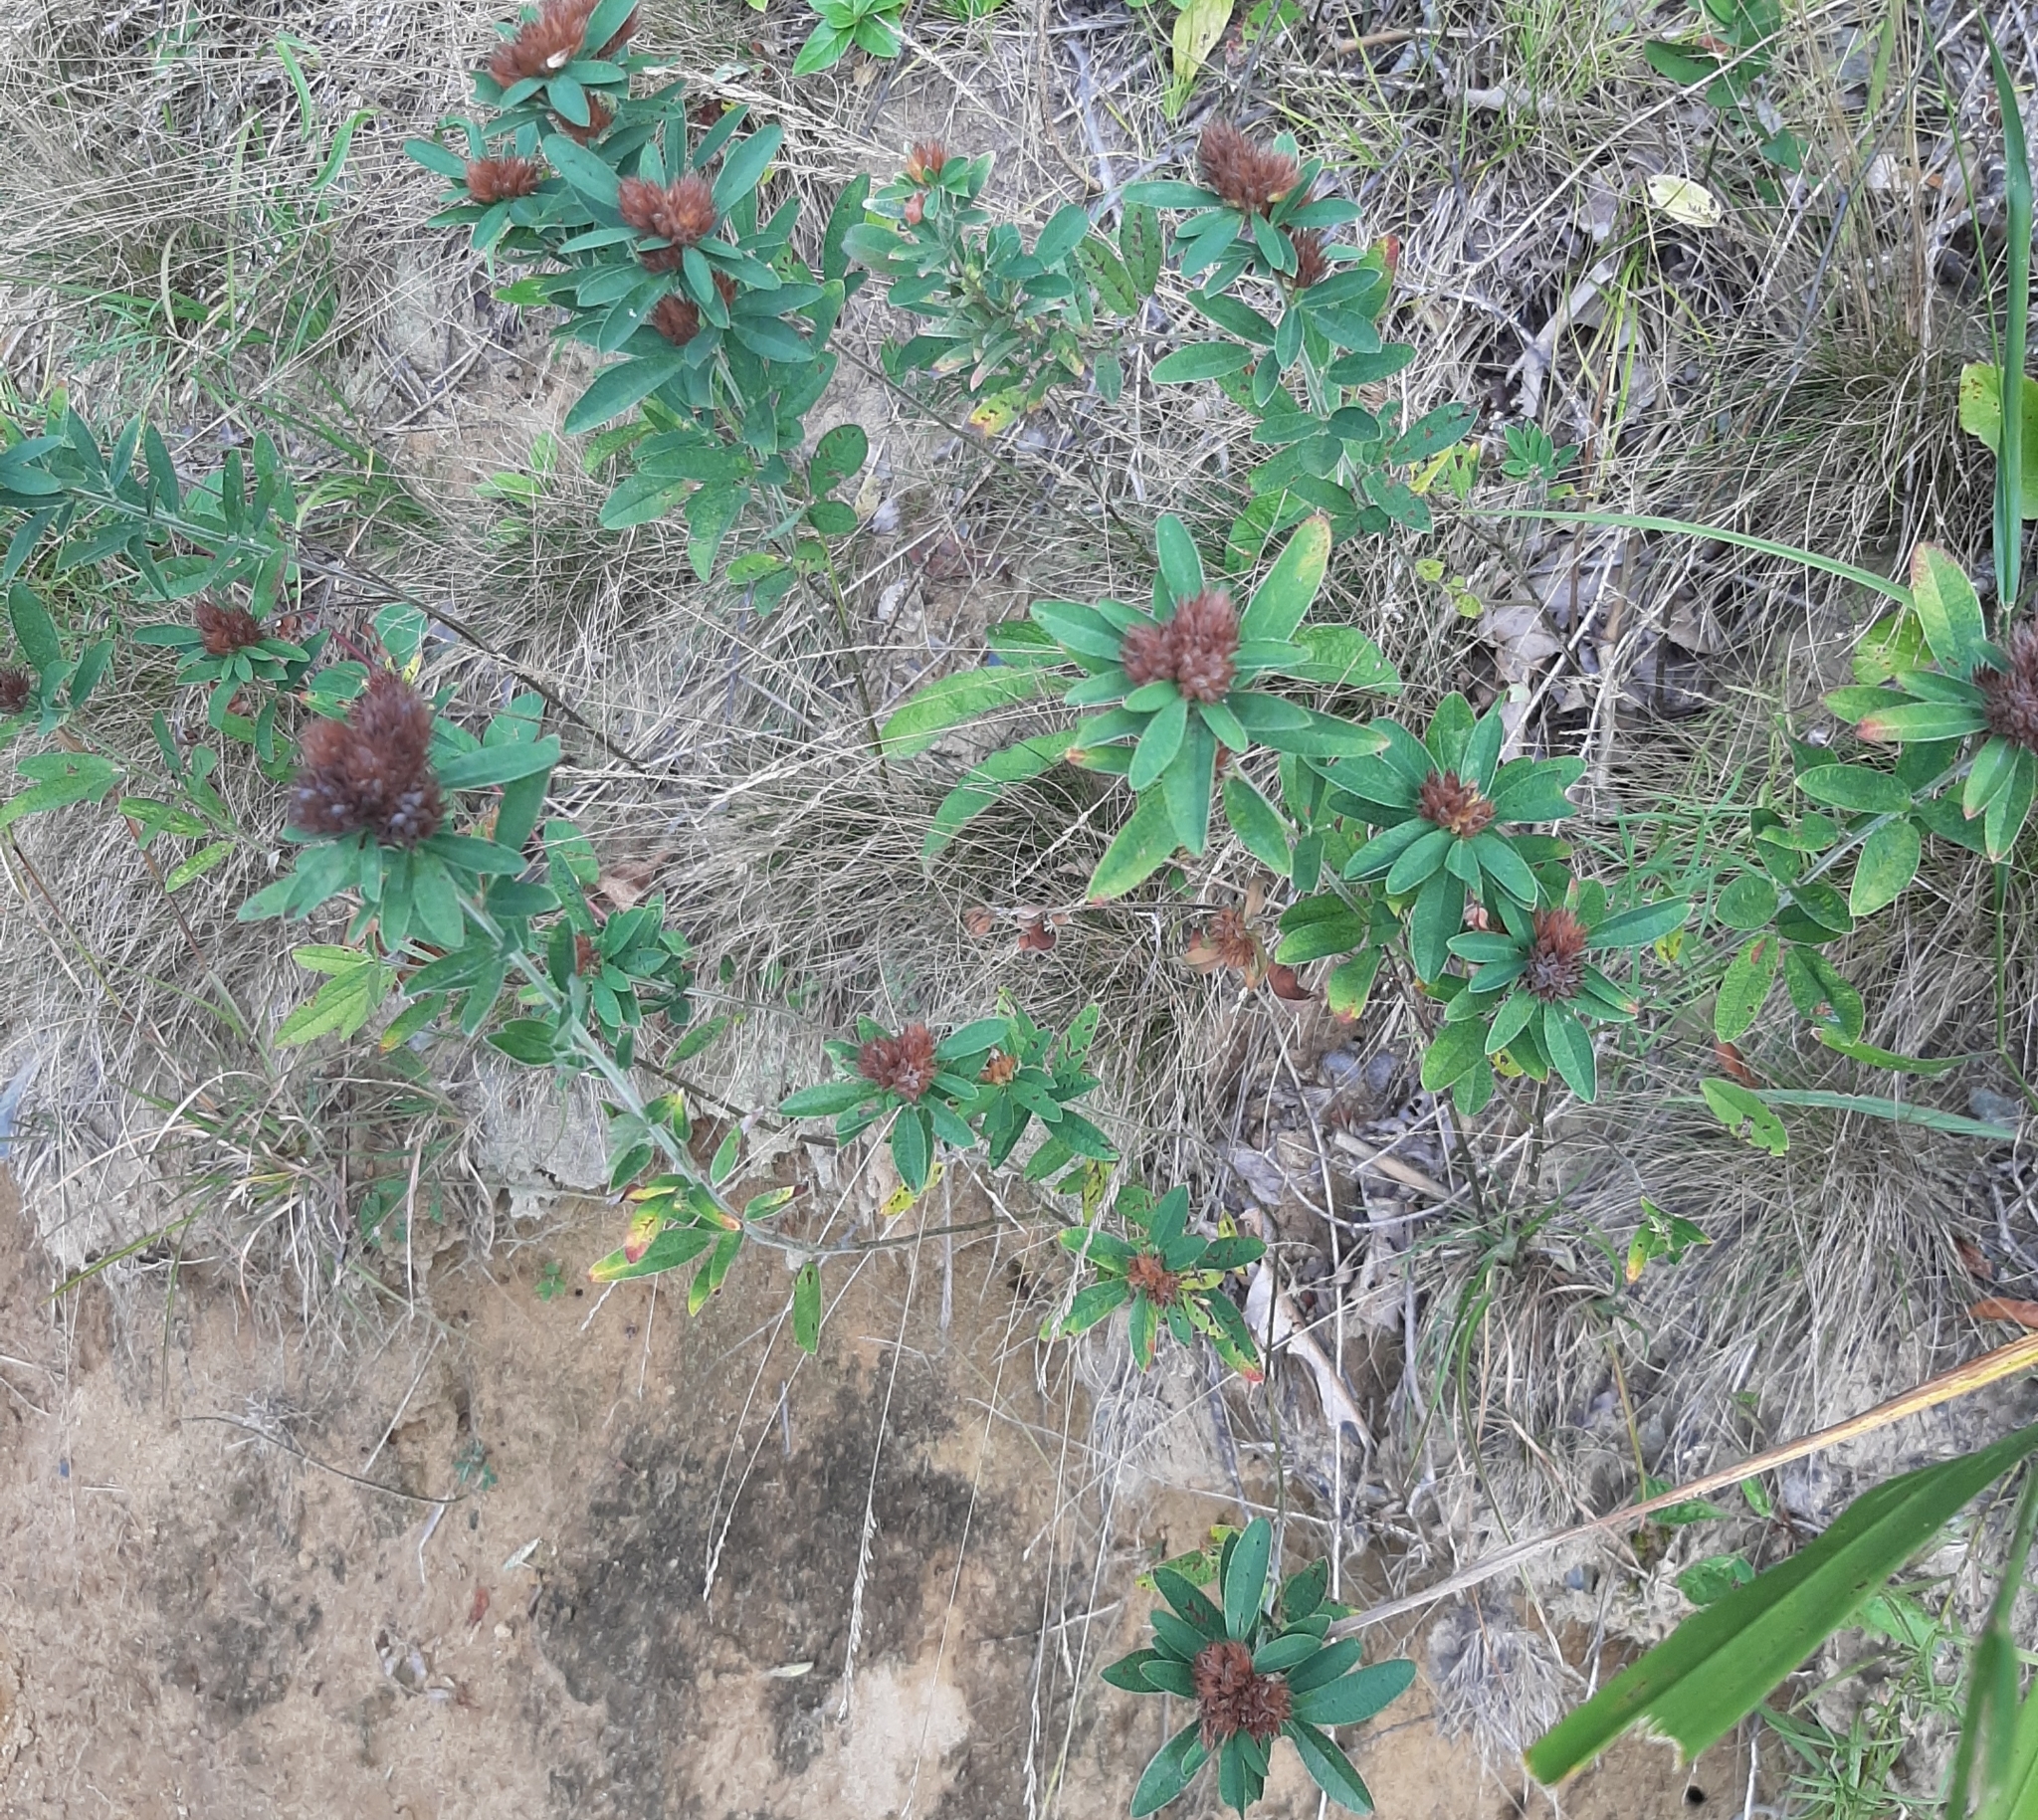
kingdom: Plantae
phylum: Tracheophyta
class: Magnoliopsida
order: Fabales
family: Fabaceae
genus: Lespedeza
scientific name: Lespedeza capitata
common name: Dusty clover
